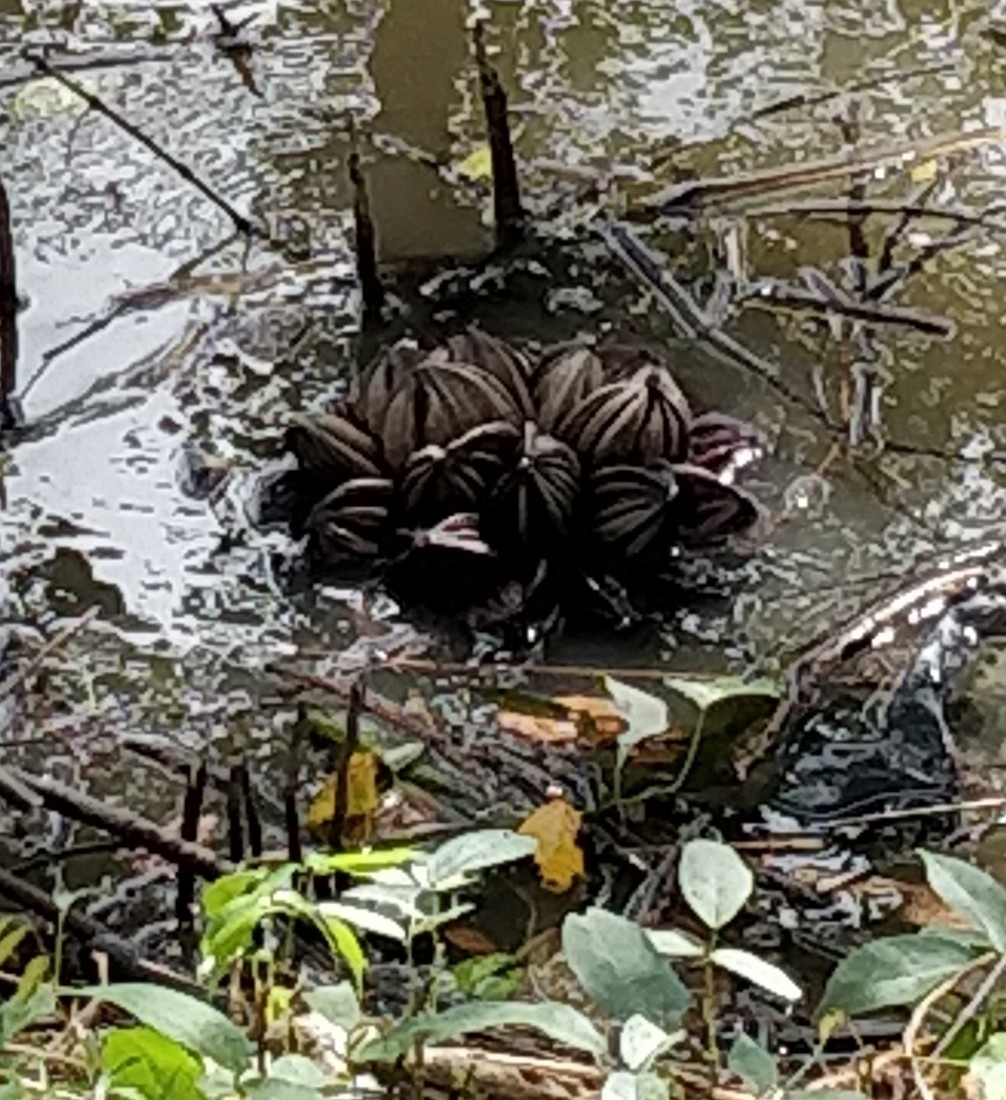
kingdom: Plantae
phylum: Tracheophyta
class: Liliopsida
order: Arecales
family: Arecaceae
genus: Nypa
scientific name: Nypa fruticans
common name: Mangrove palm
